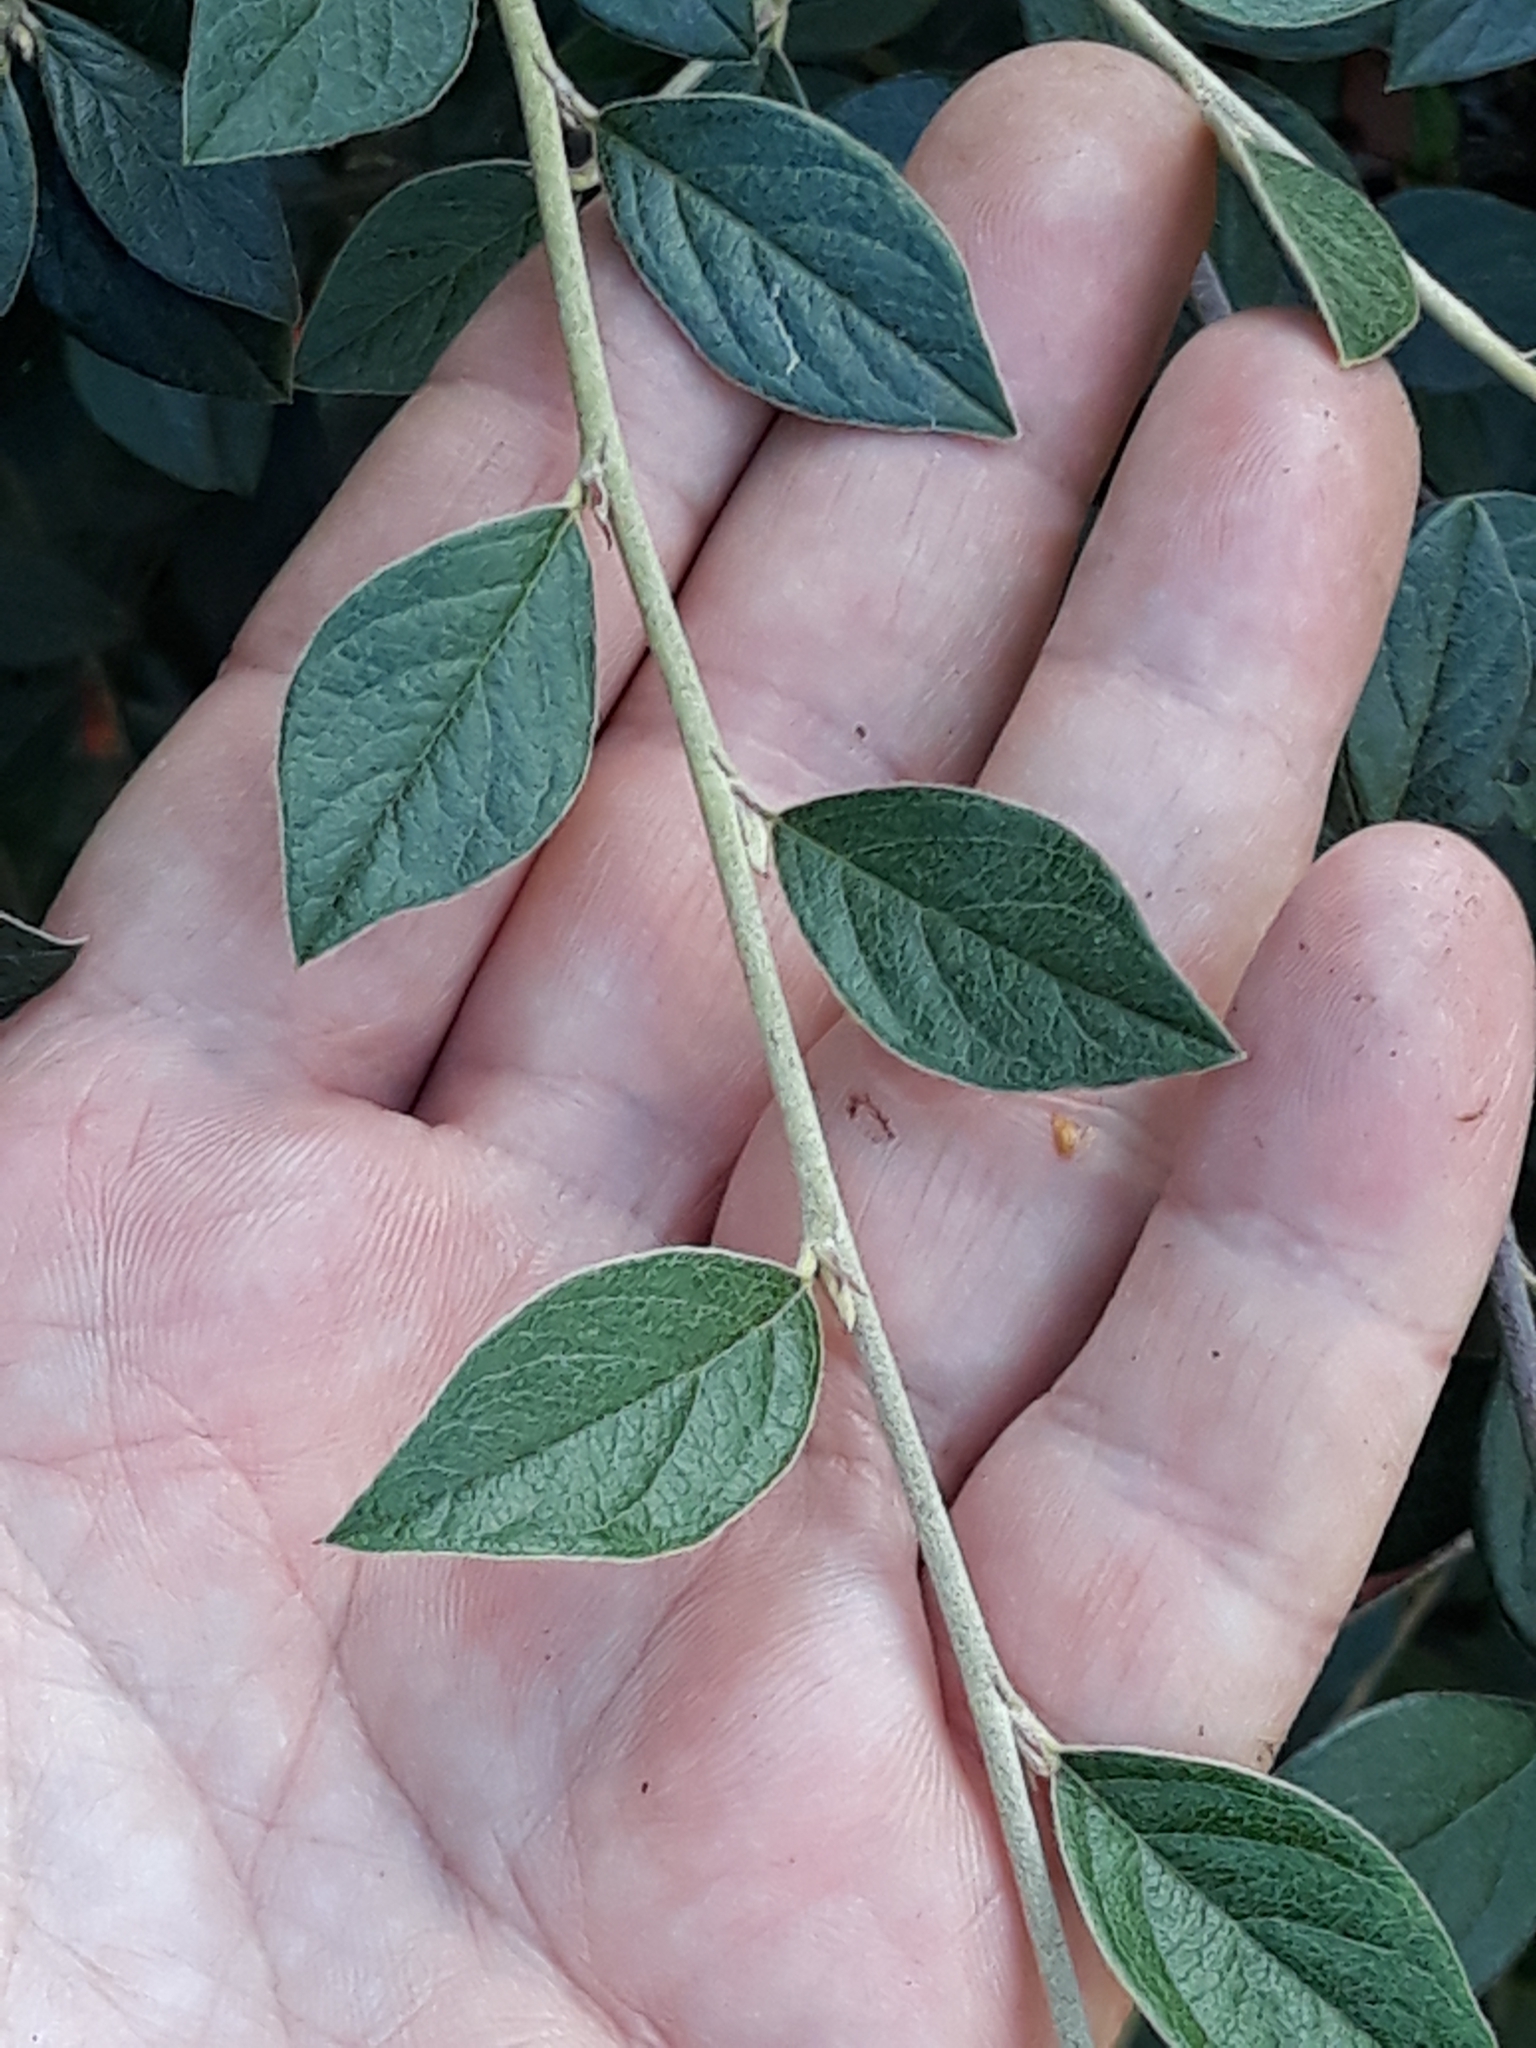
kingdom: Plantae
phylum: Tracheophyta
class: Magnoliopsida
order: Rosales
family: Rosaceae
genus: Cotoneaster
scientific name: Cotoneaster franchetii
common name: Franchet's cotoneaster
